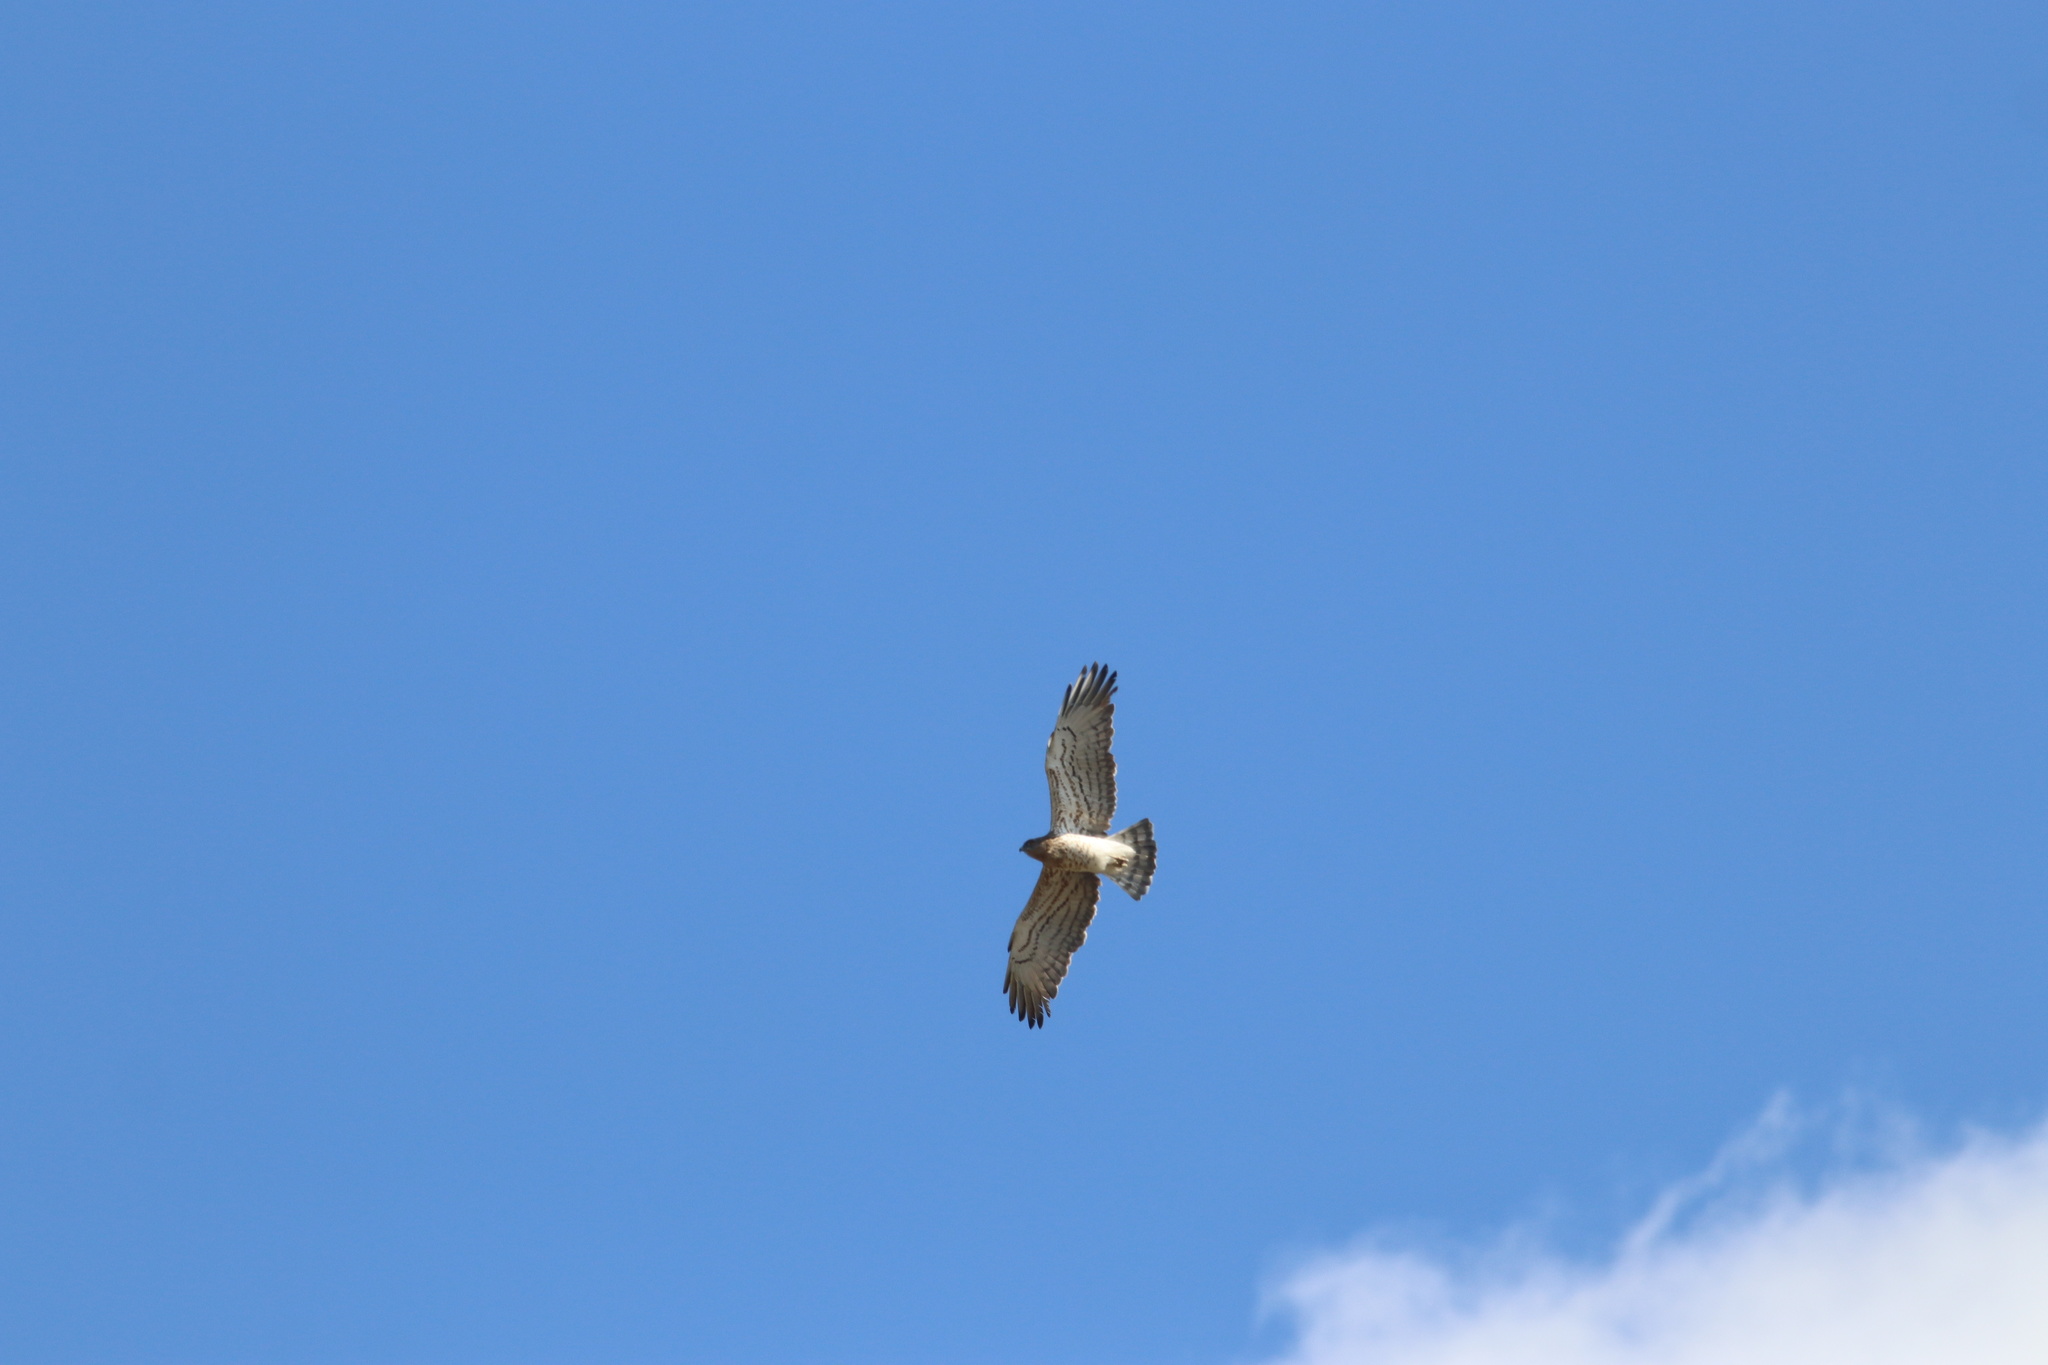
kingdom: Animalia
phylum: Chordata
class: Aves
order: Accipitriformes
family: Accipitridae
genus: Circaetus
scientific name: Circaetus gallicus
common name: Short-toed snake eagle
